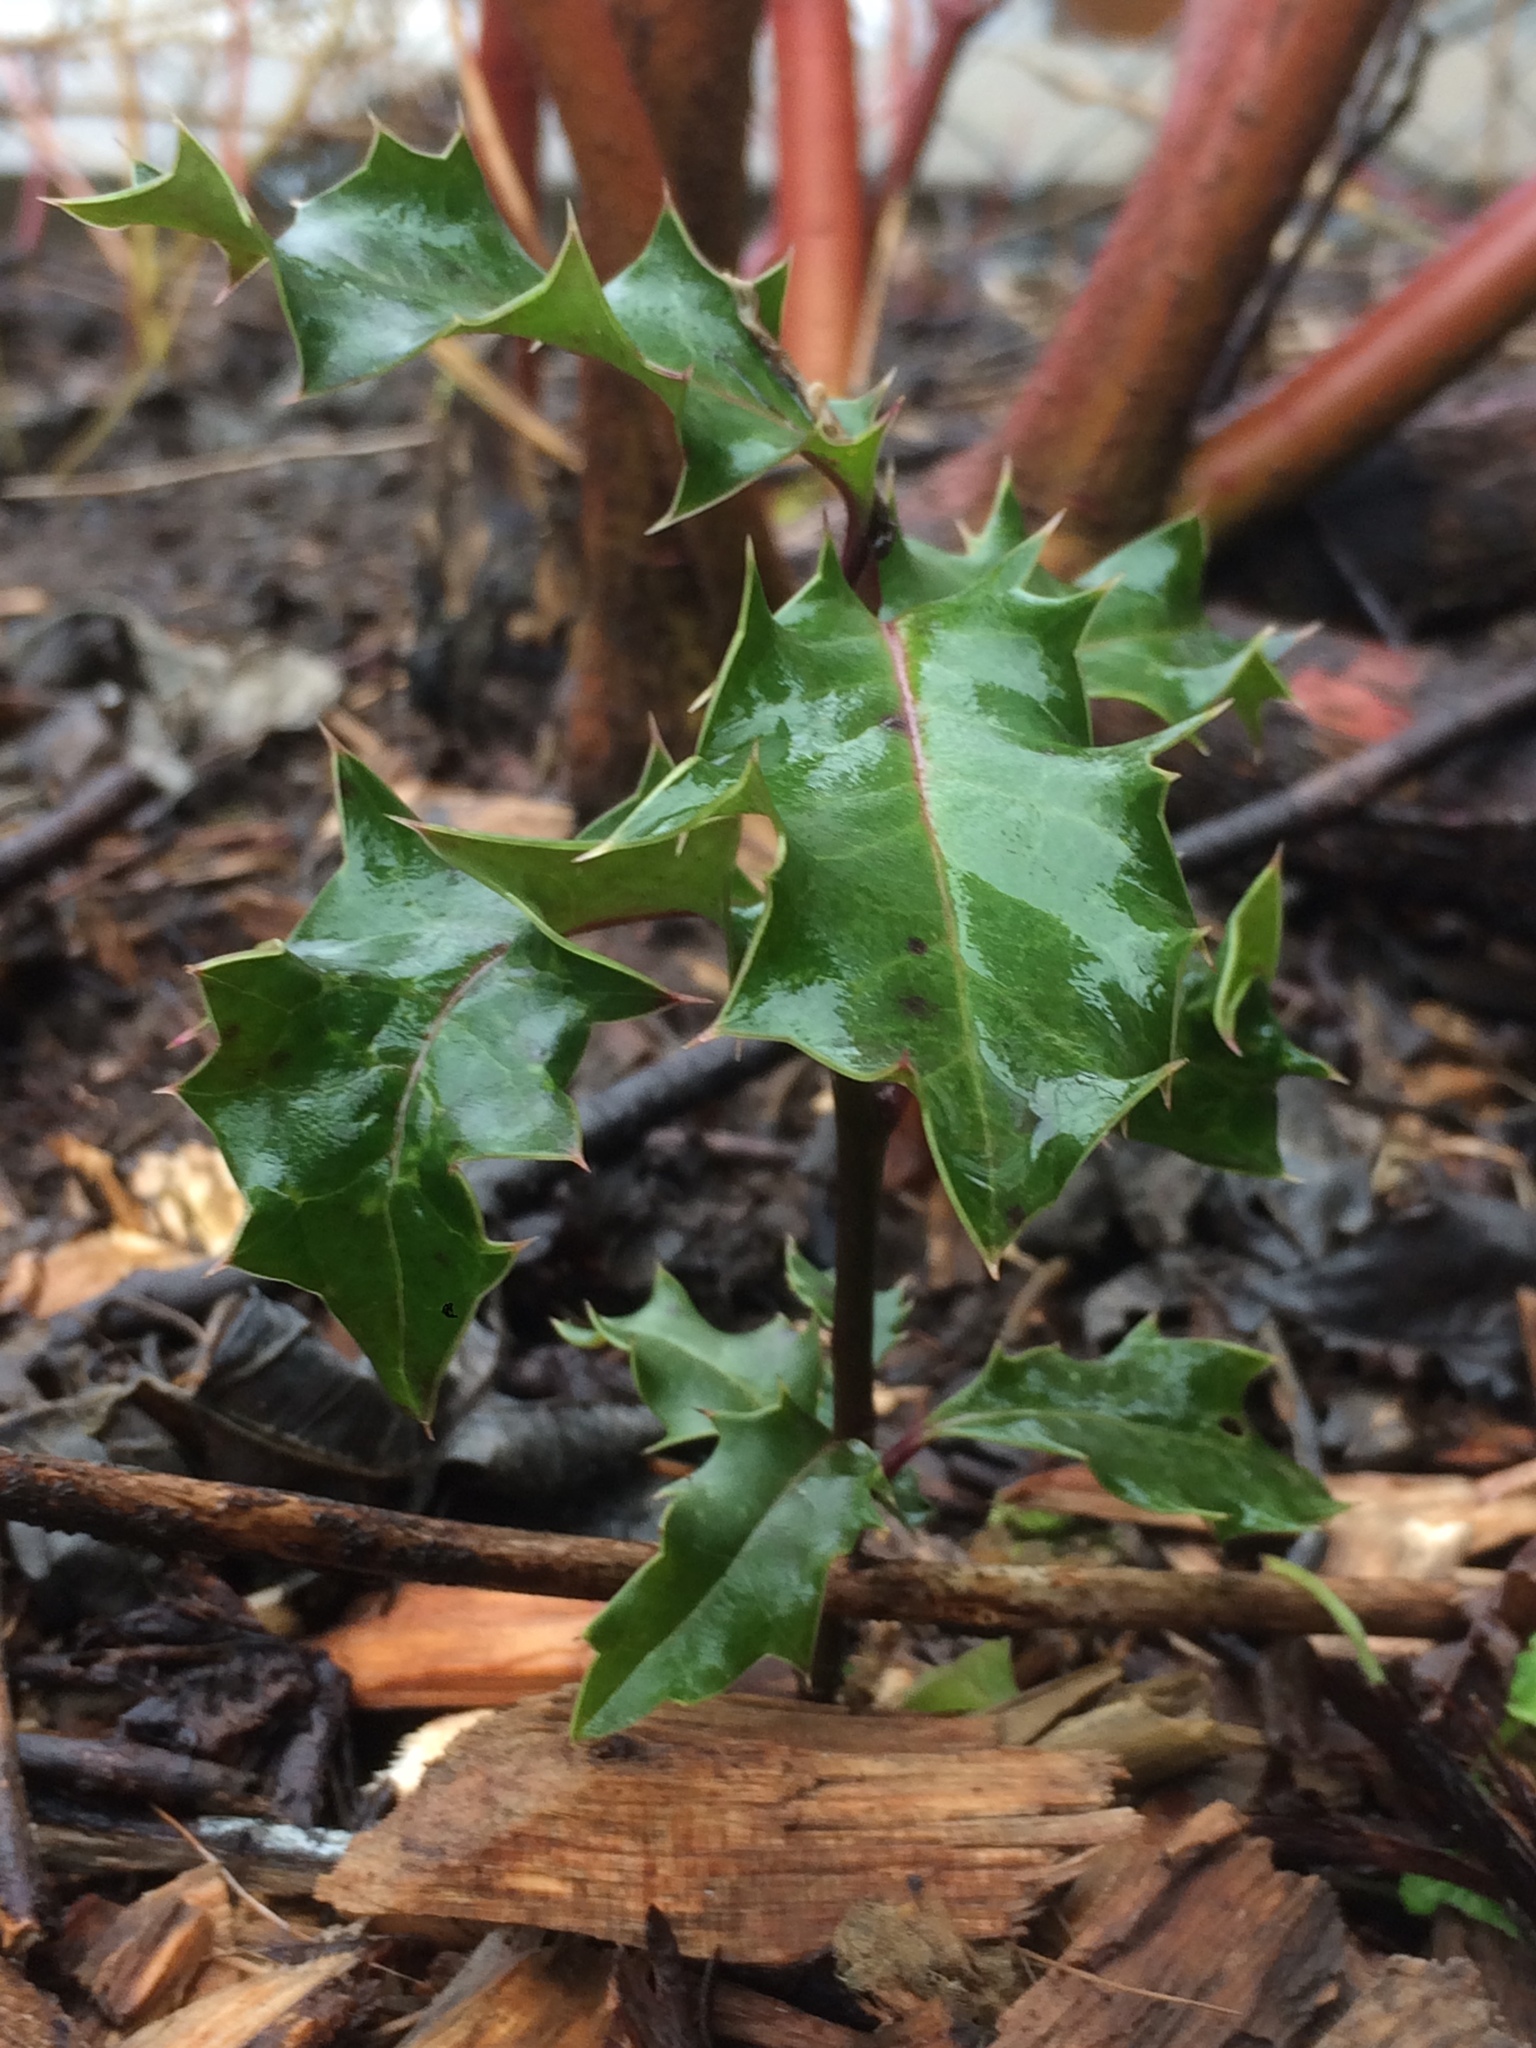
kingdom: Plantae
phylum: Tracheophyta
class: Magnoliopsida
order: Aquifoliales
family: Aquifoliaceae
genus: Ilex
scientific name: Ilex aquifolium
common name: English holly
